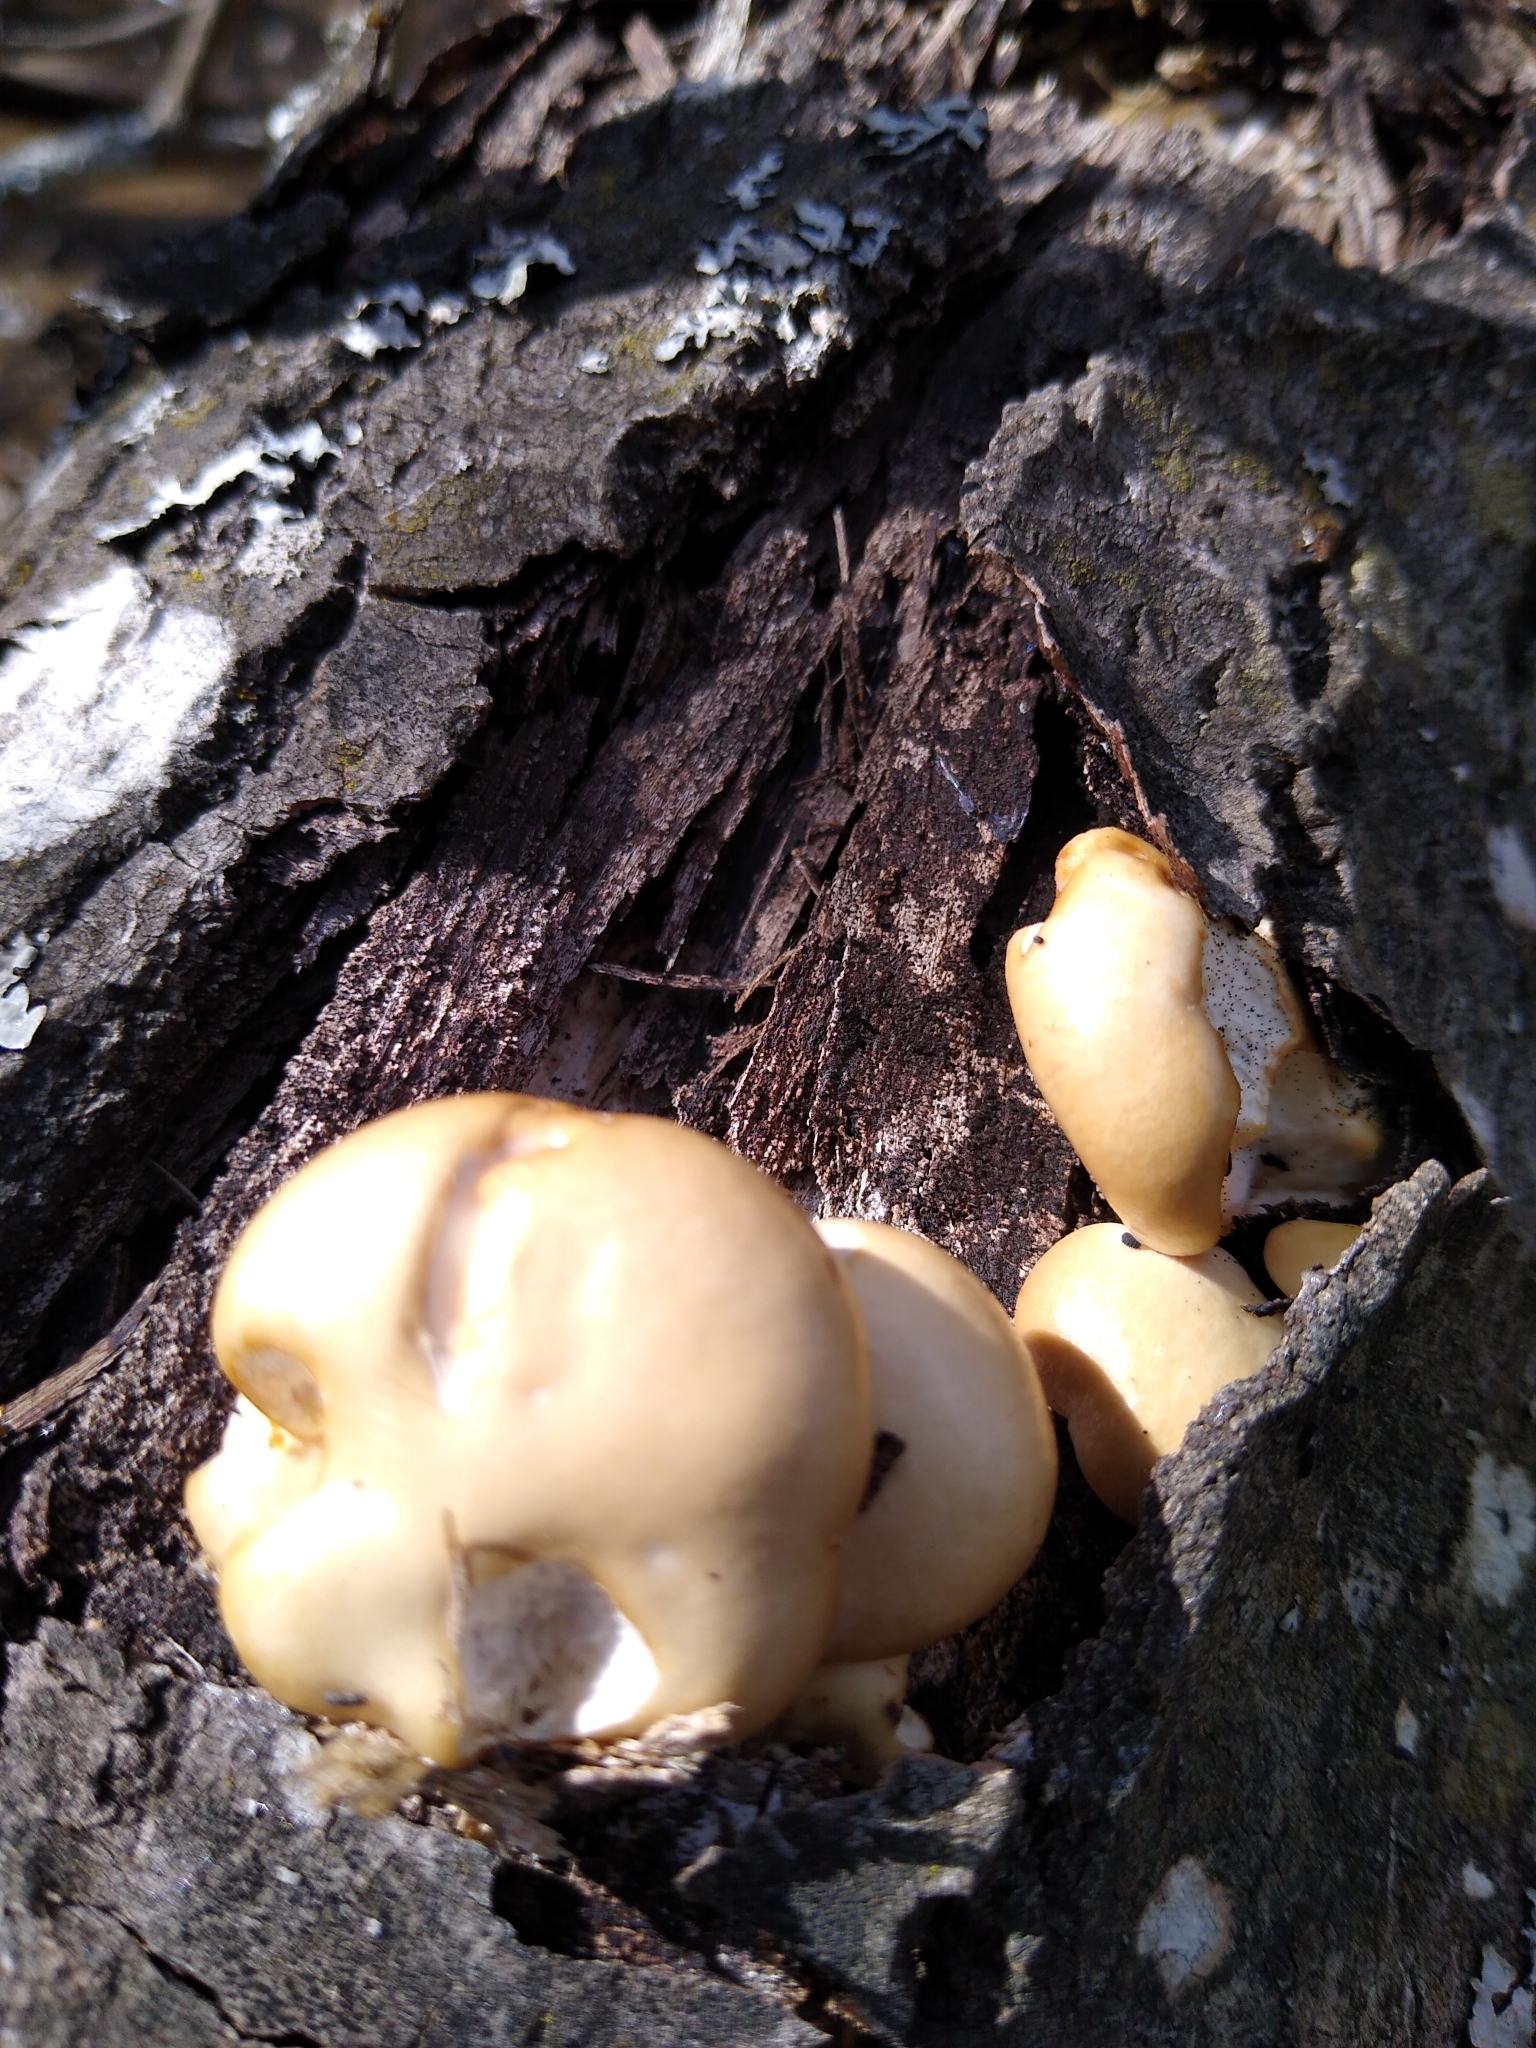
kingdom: Fungi
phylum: Basidiomycota
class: Agaricomycetes
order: Agaricales
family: Pleurotaceae
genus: Pleurotus
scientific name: Pleurotus populinus
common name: Aspen oyster mushroom
